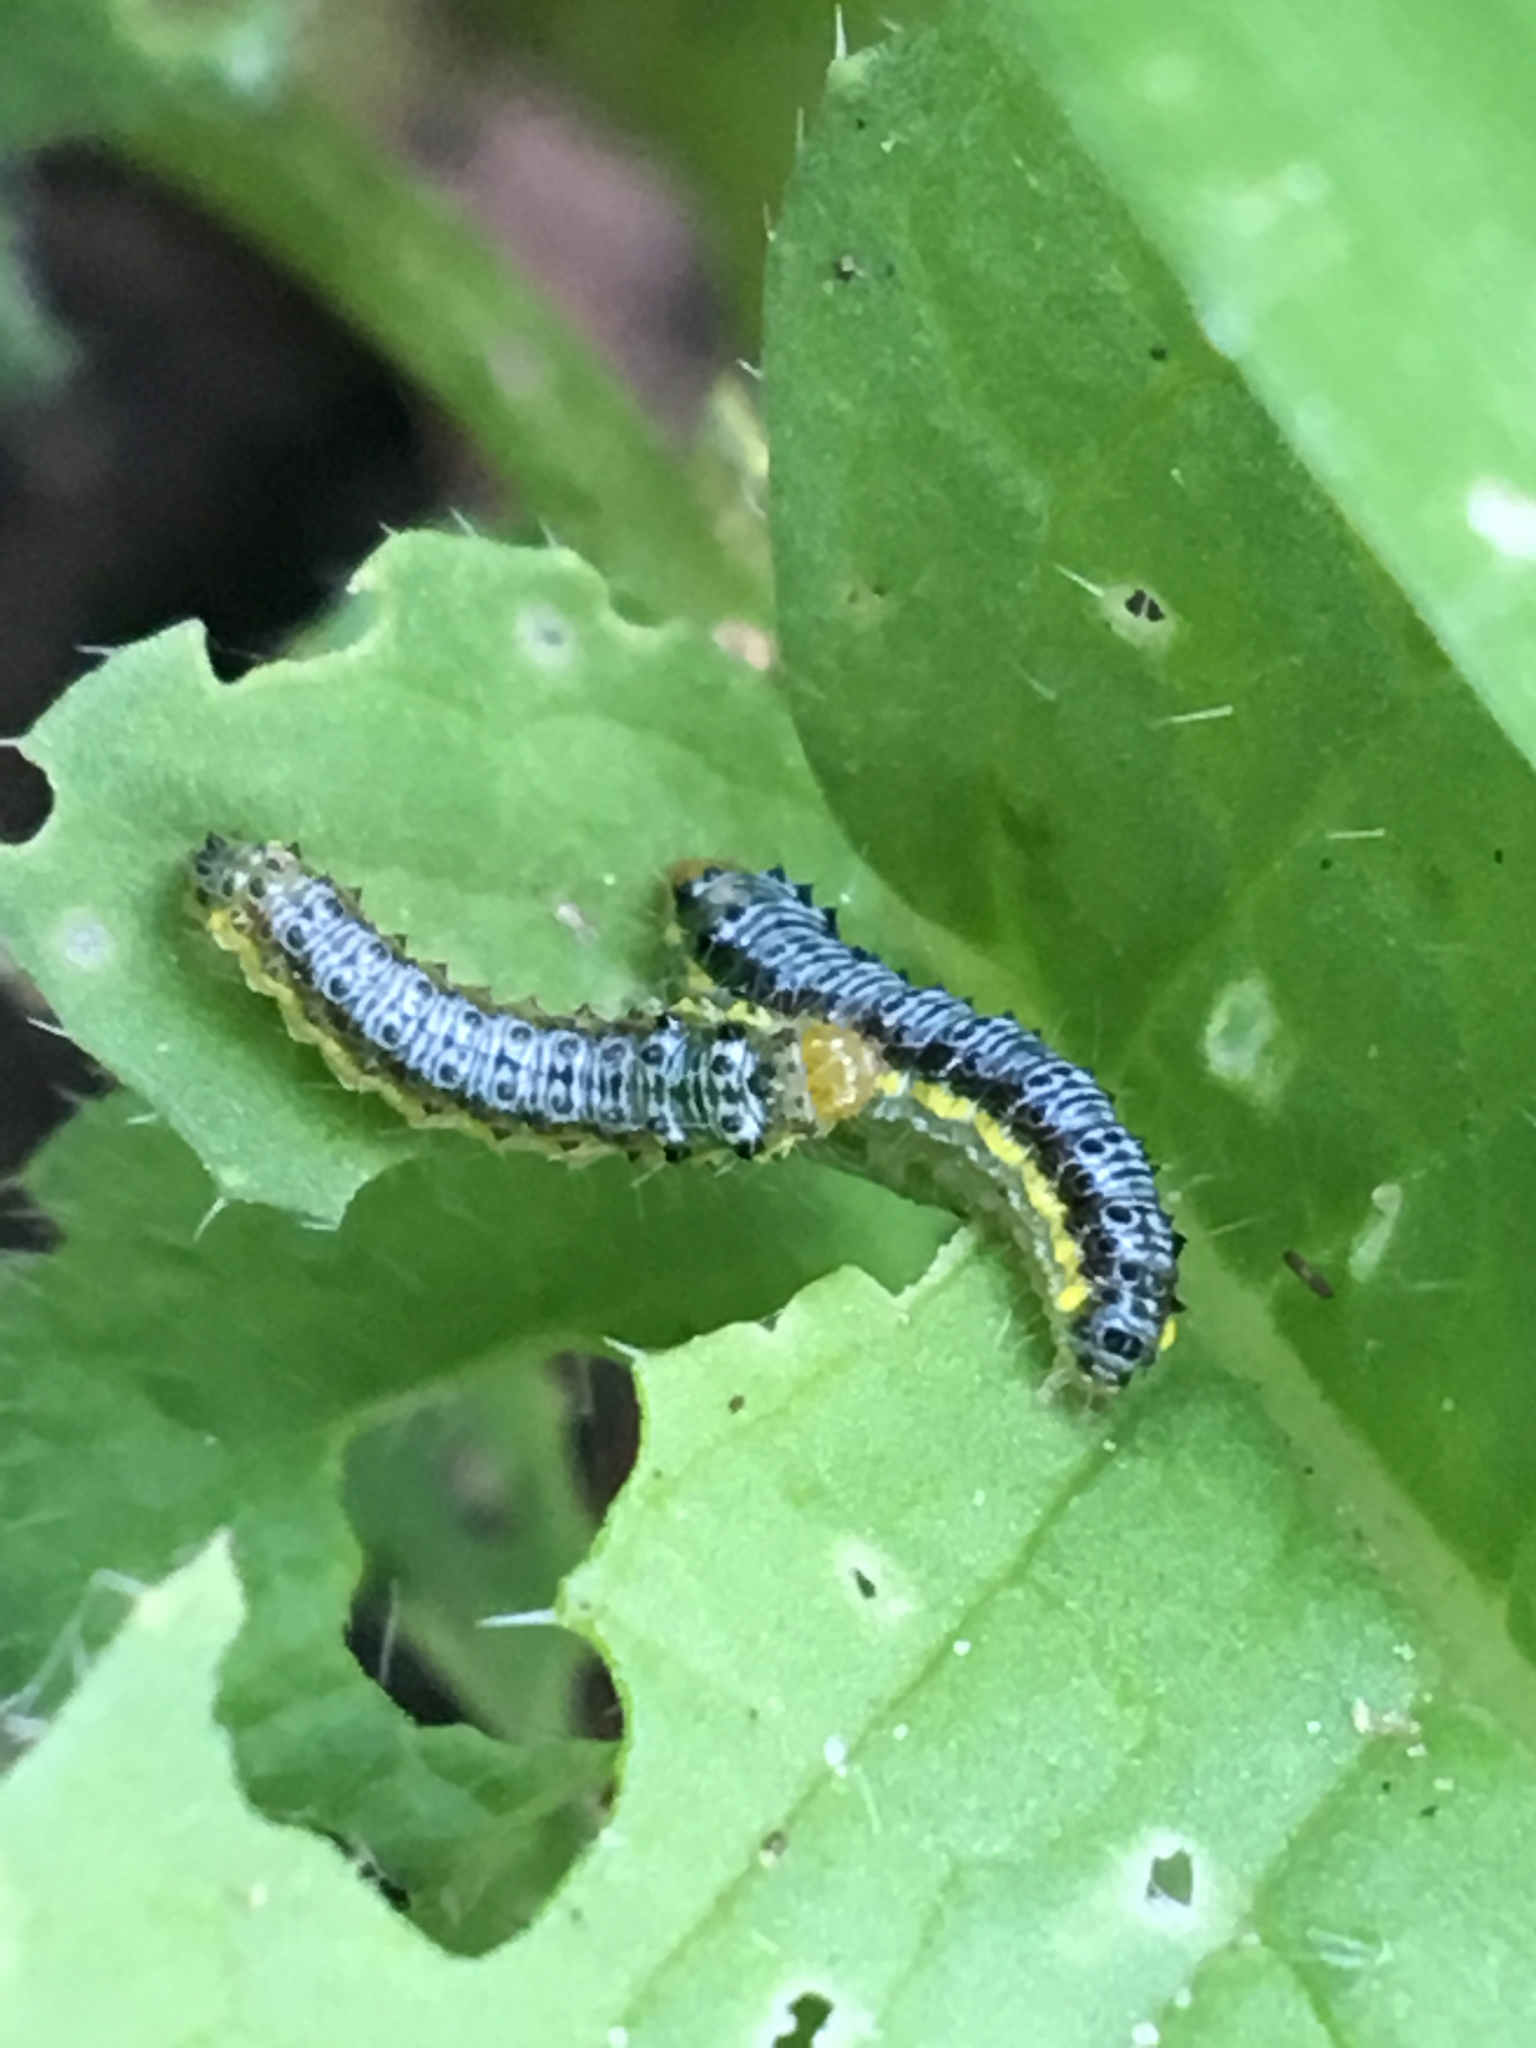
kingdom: Animalia
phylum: Arthropoda
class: Insecta
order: Lepidoptera
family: Crambidae
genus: Evergestis
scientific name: Evergestis rimosalis
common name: Cross-striped cabbageworm moth
